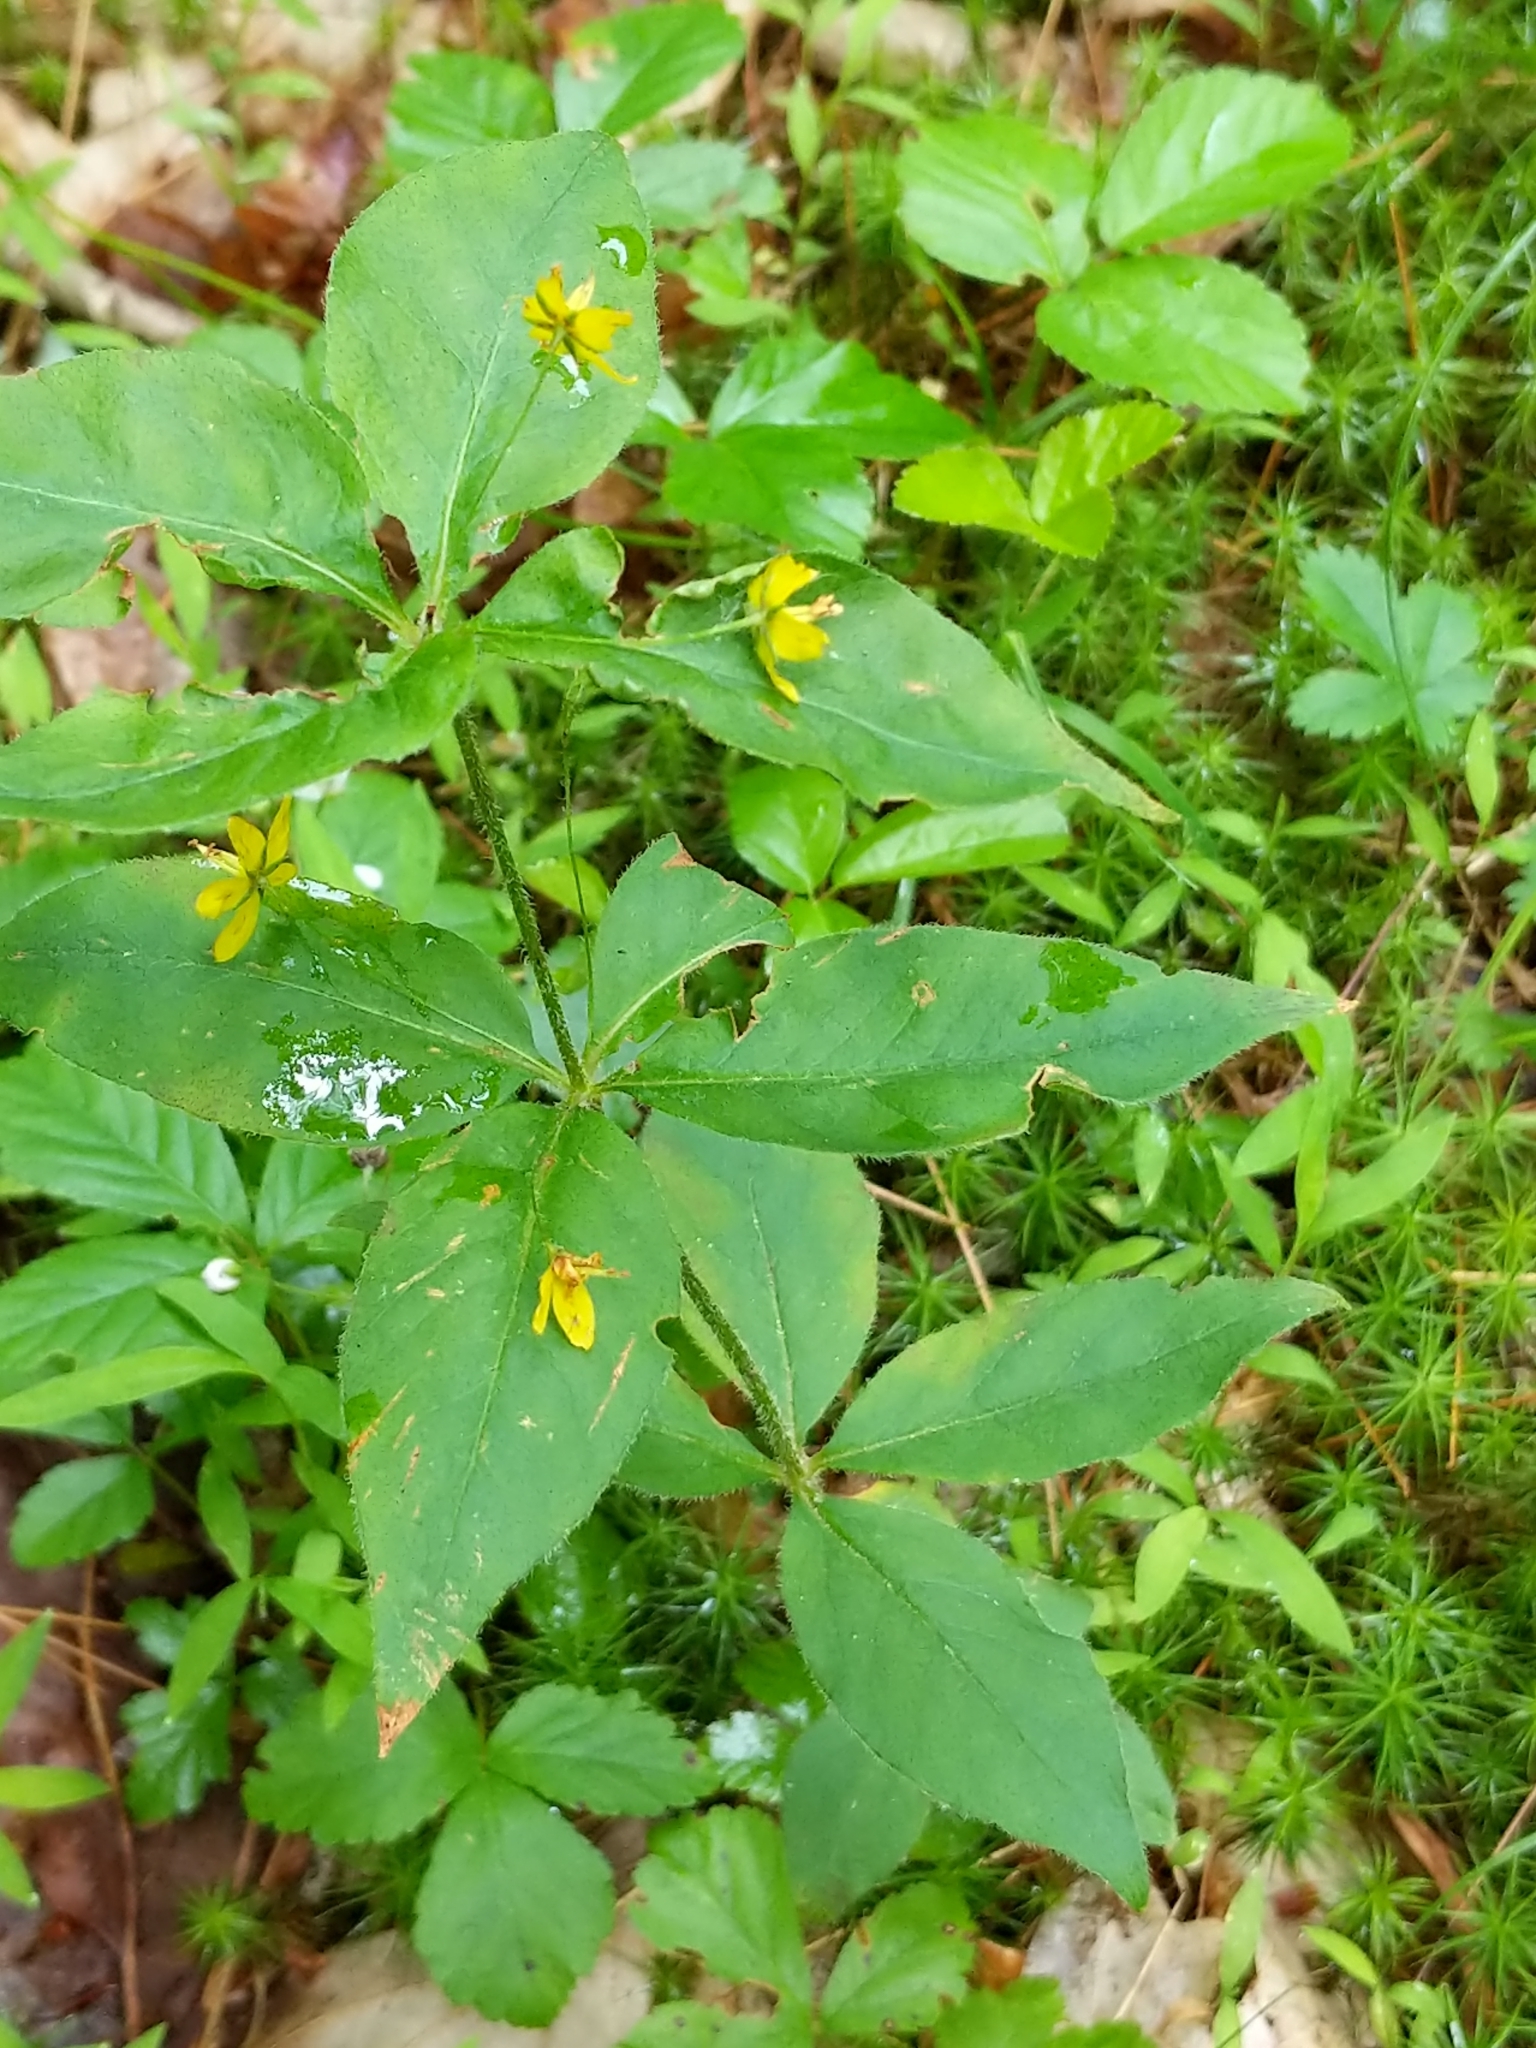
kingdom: Plantae
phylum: Tracheophyta
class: Magnoliopsida
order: Ericales
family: Primulaceae
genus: Lysimachia
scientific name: Lysimachia quadrifolia
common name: Whorled loosestrife
